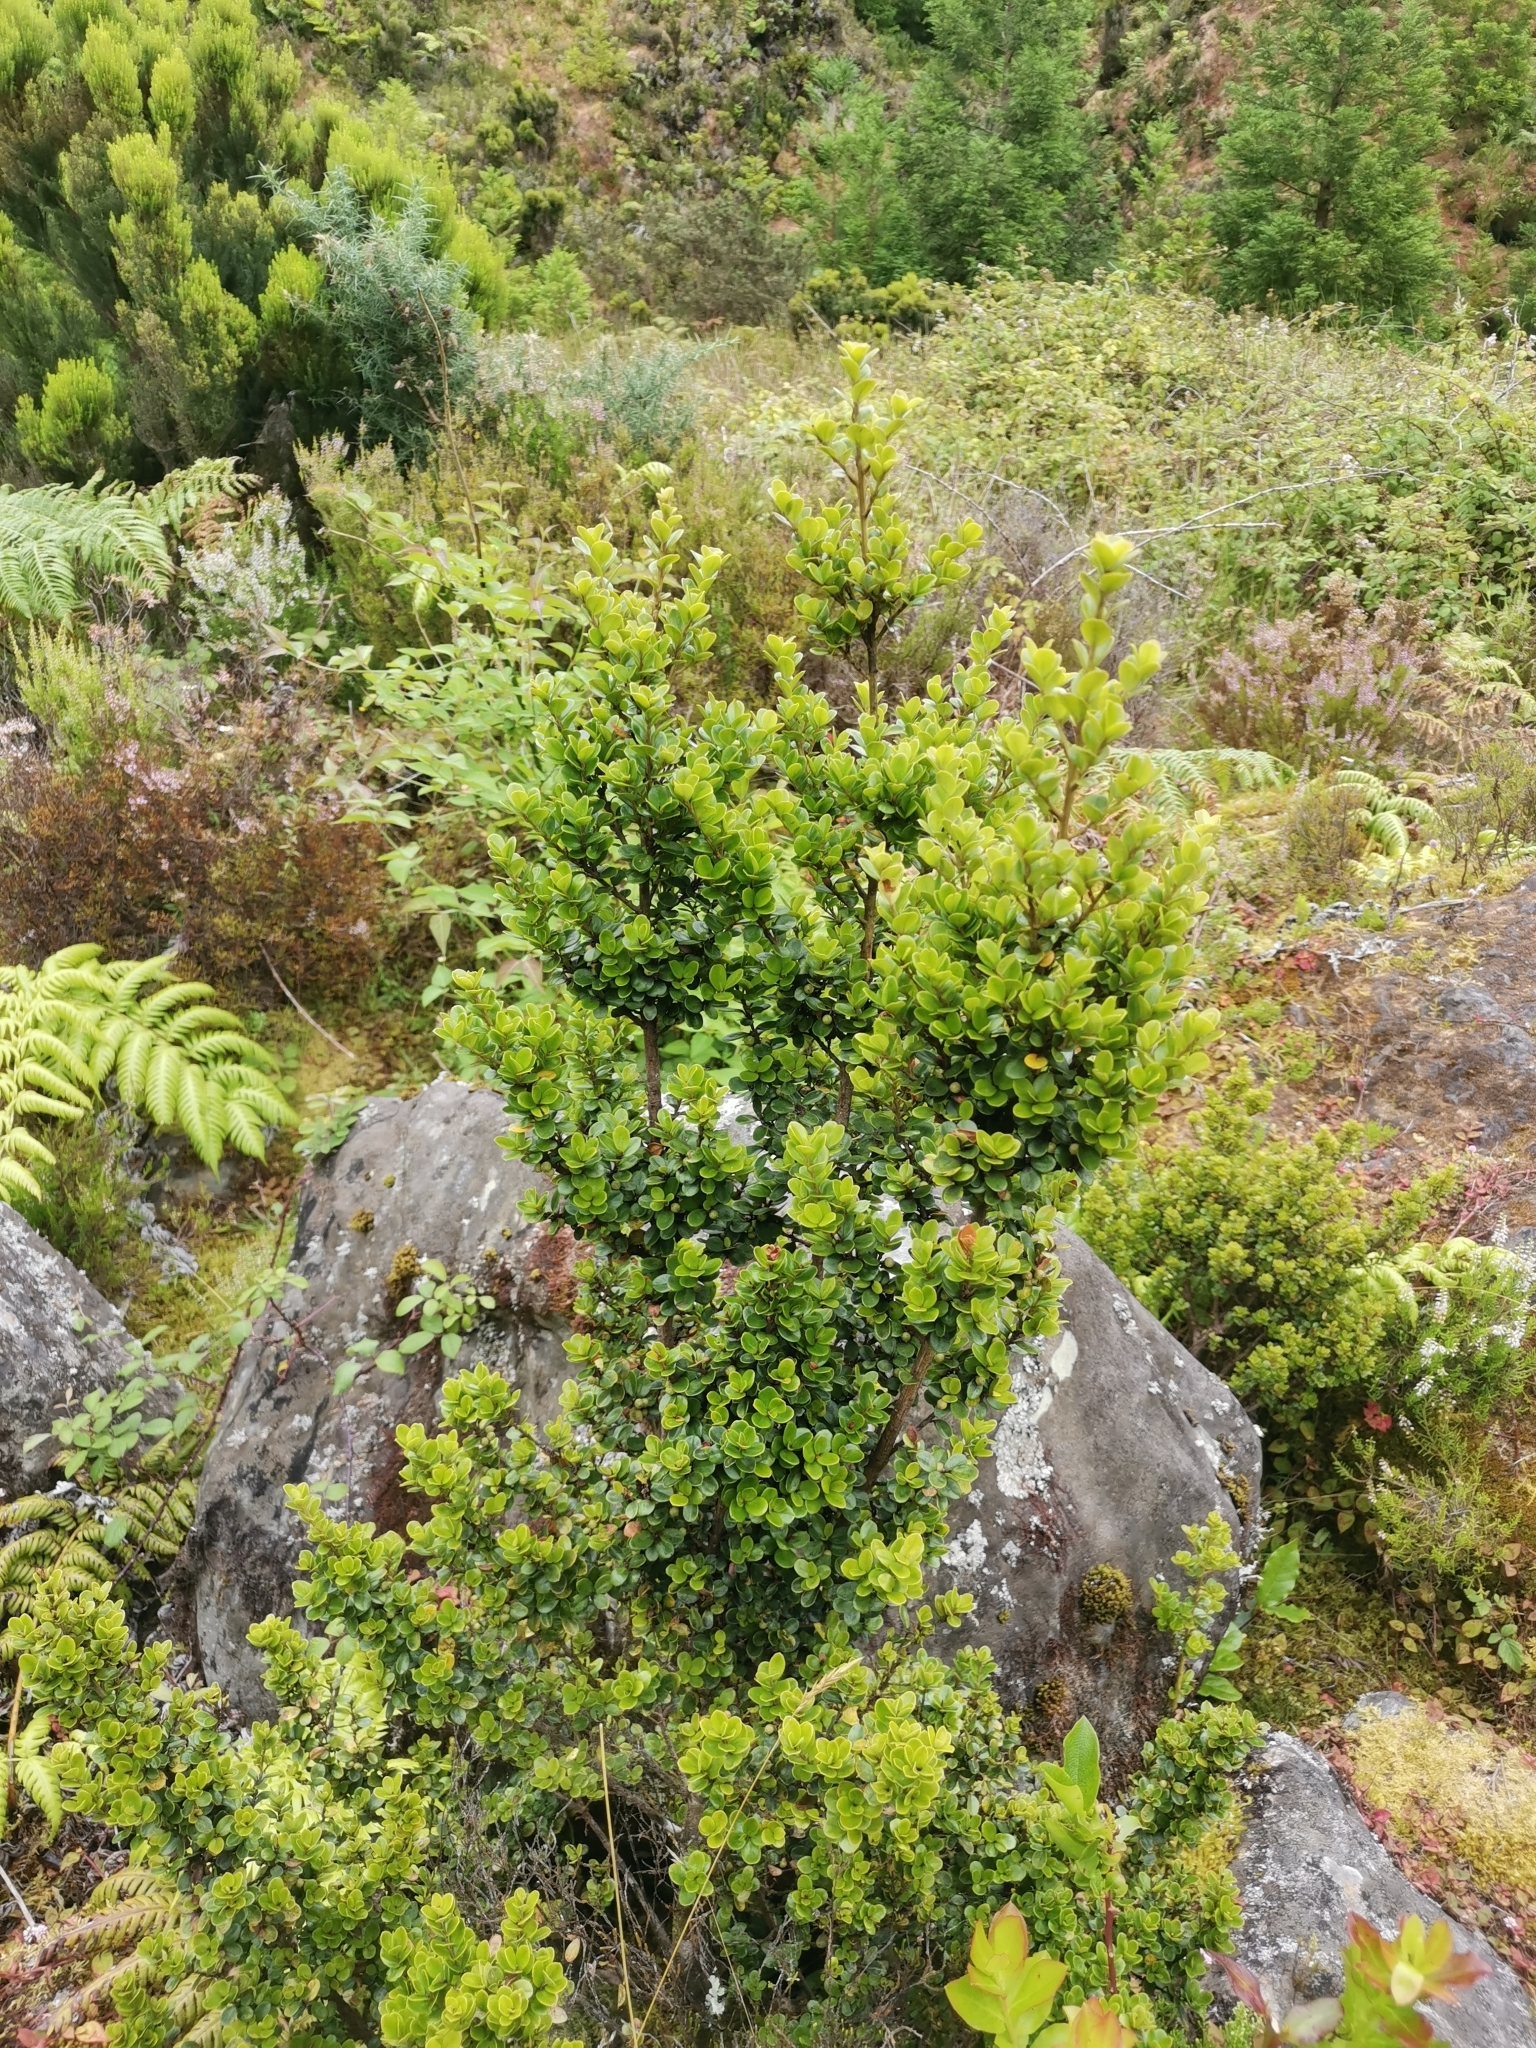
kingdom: Plantae
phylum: Tracheophyta
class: Magnoliopsida
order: Ericales
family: Primulaceae
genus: Myrsine
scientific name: Myrsine africana
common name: African-boxwood
